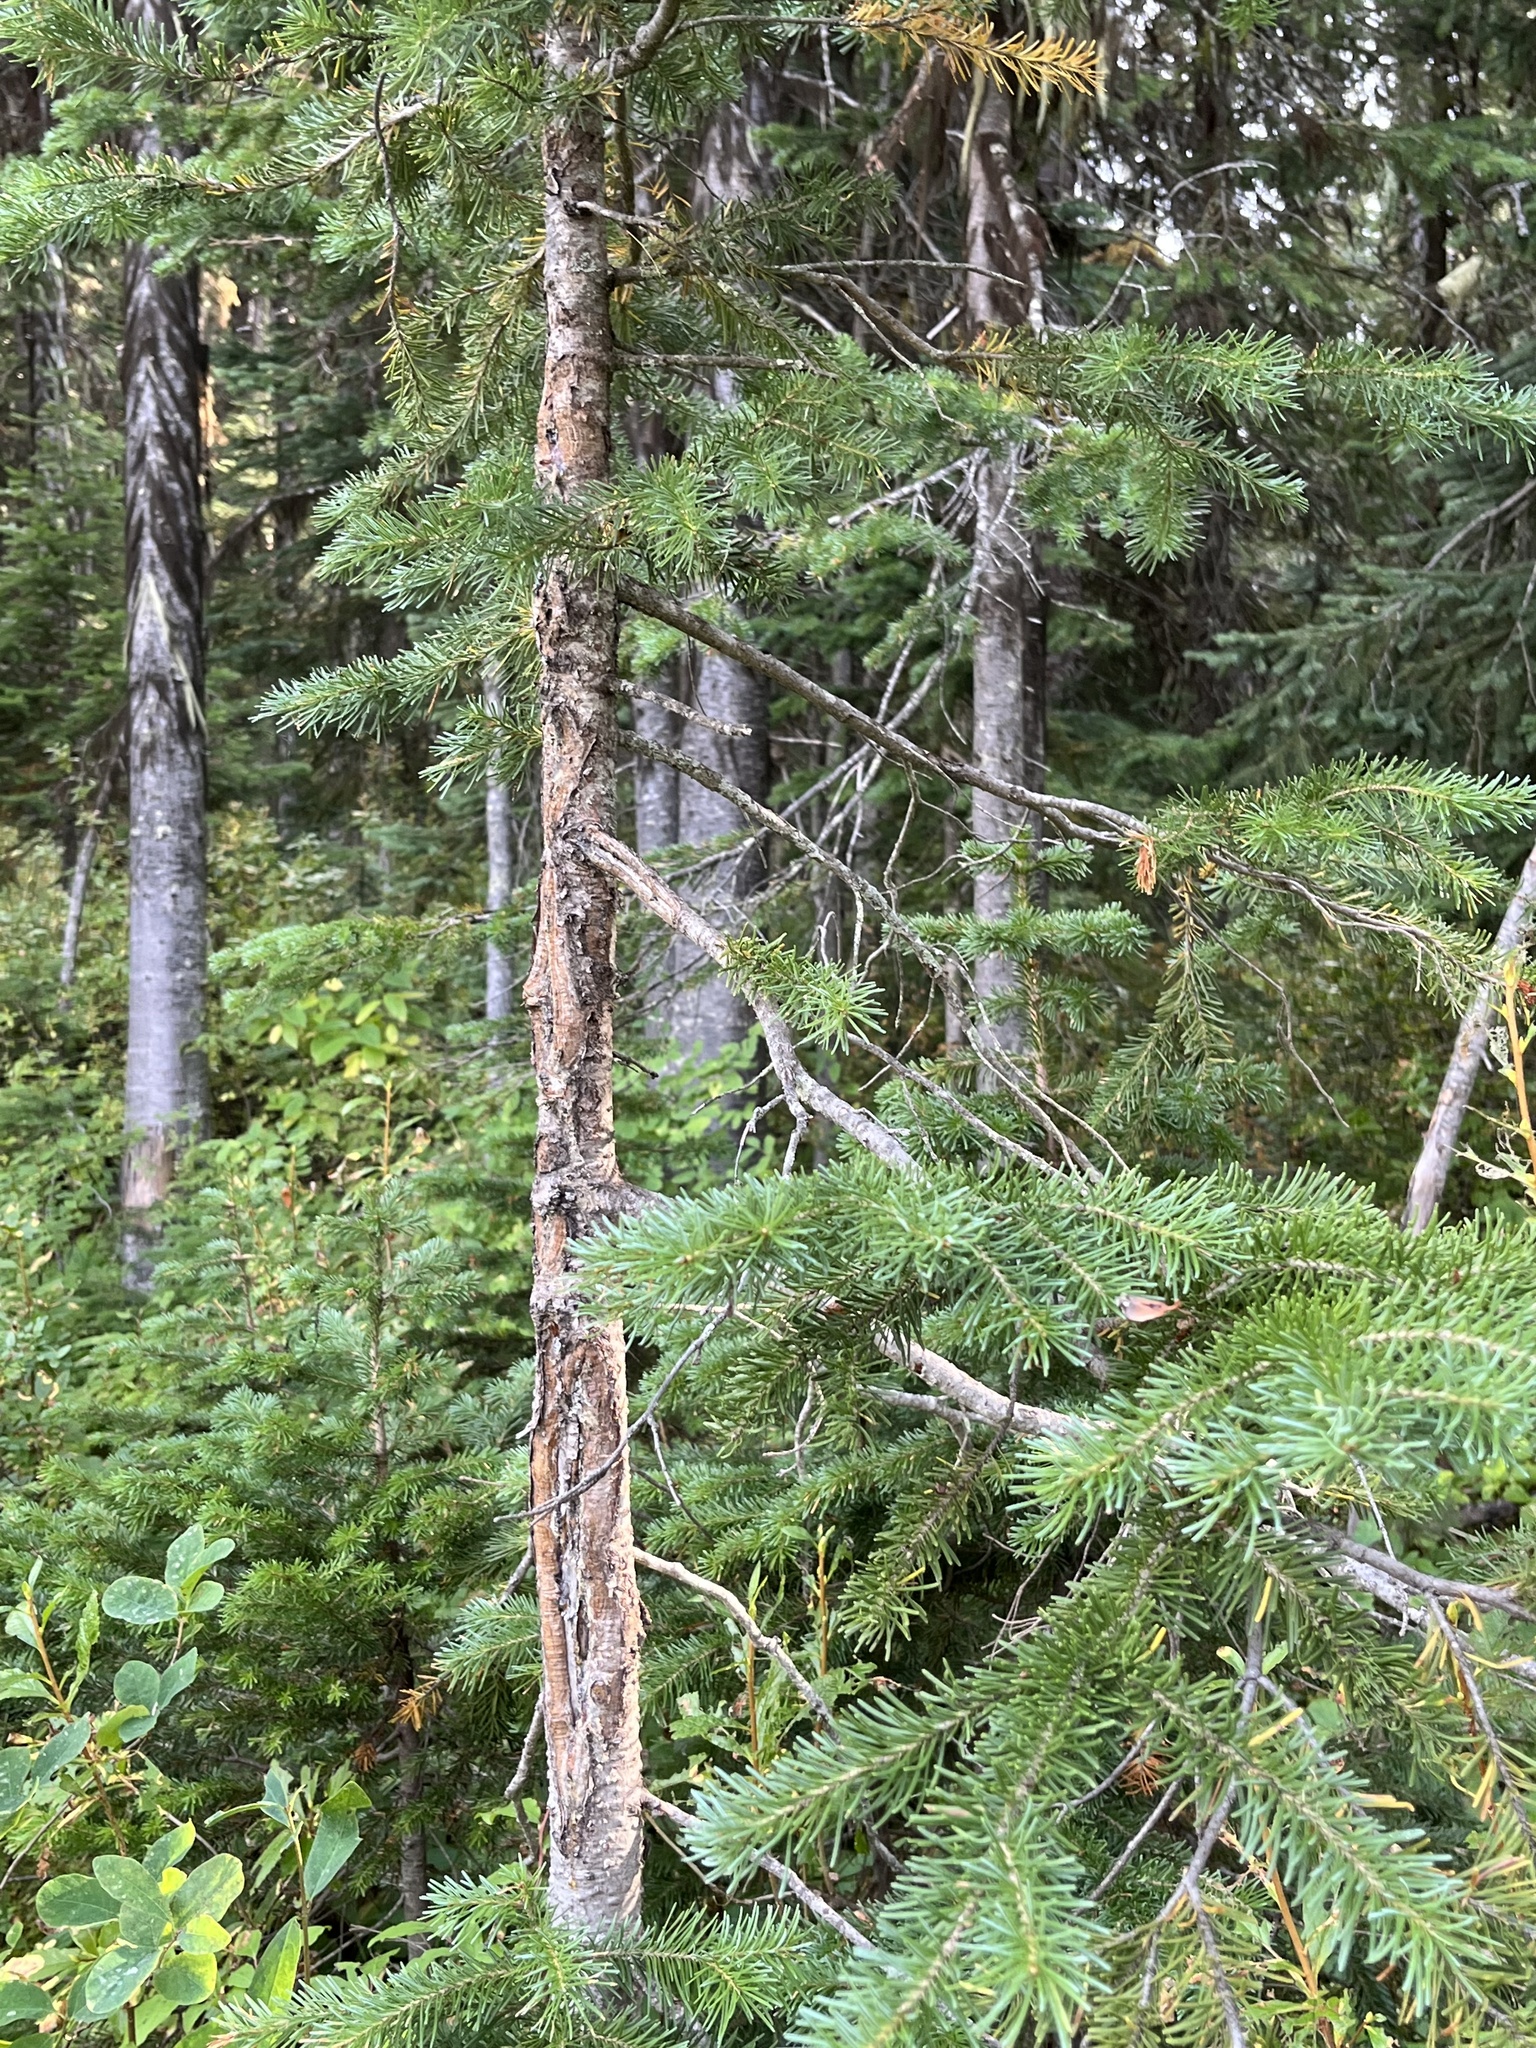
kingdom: Plantae
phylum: Tracheophyta
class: Pinopsida
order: Pinales
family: Pinaceae
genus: Abies
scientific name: Abies lasiocarpa
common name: Subalpine fir
